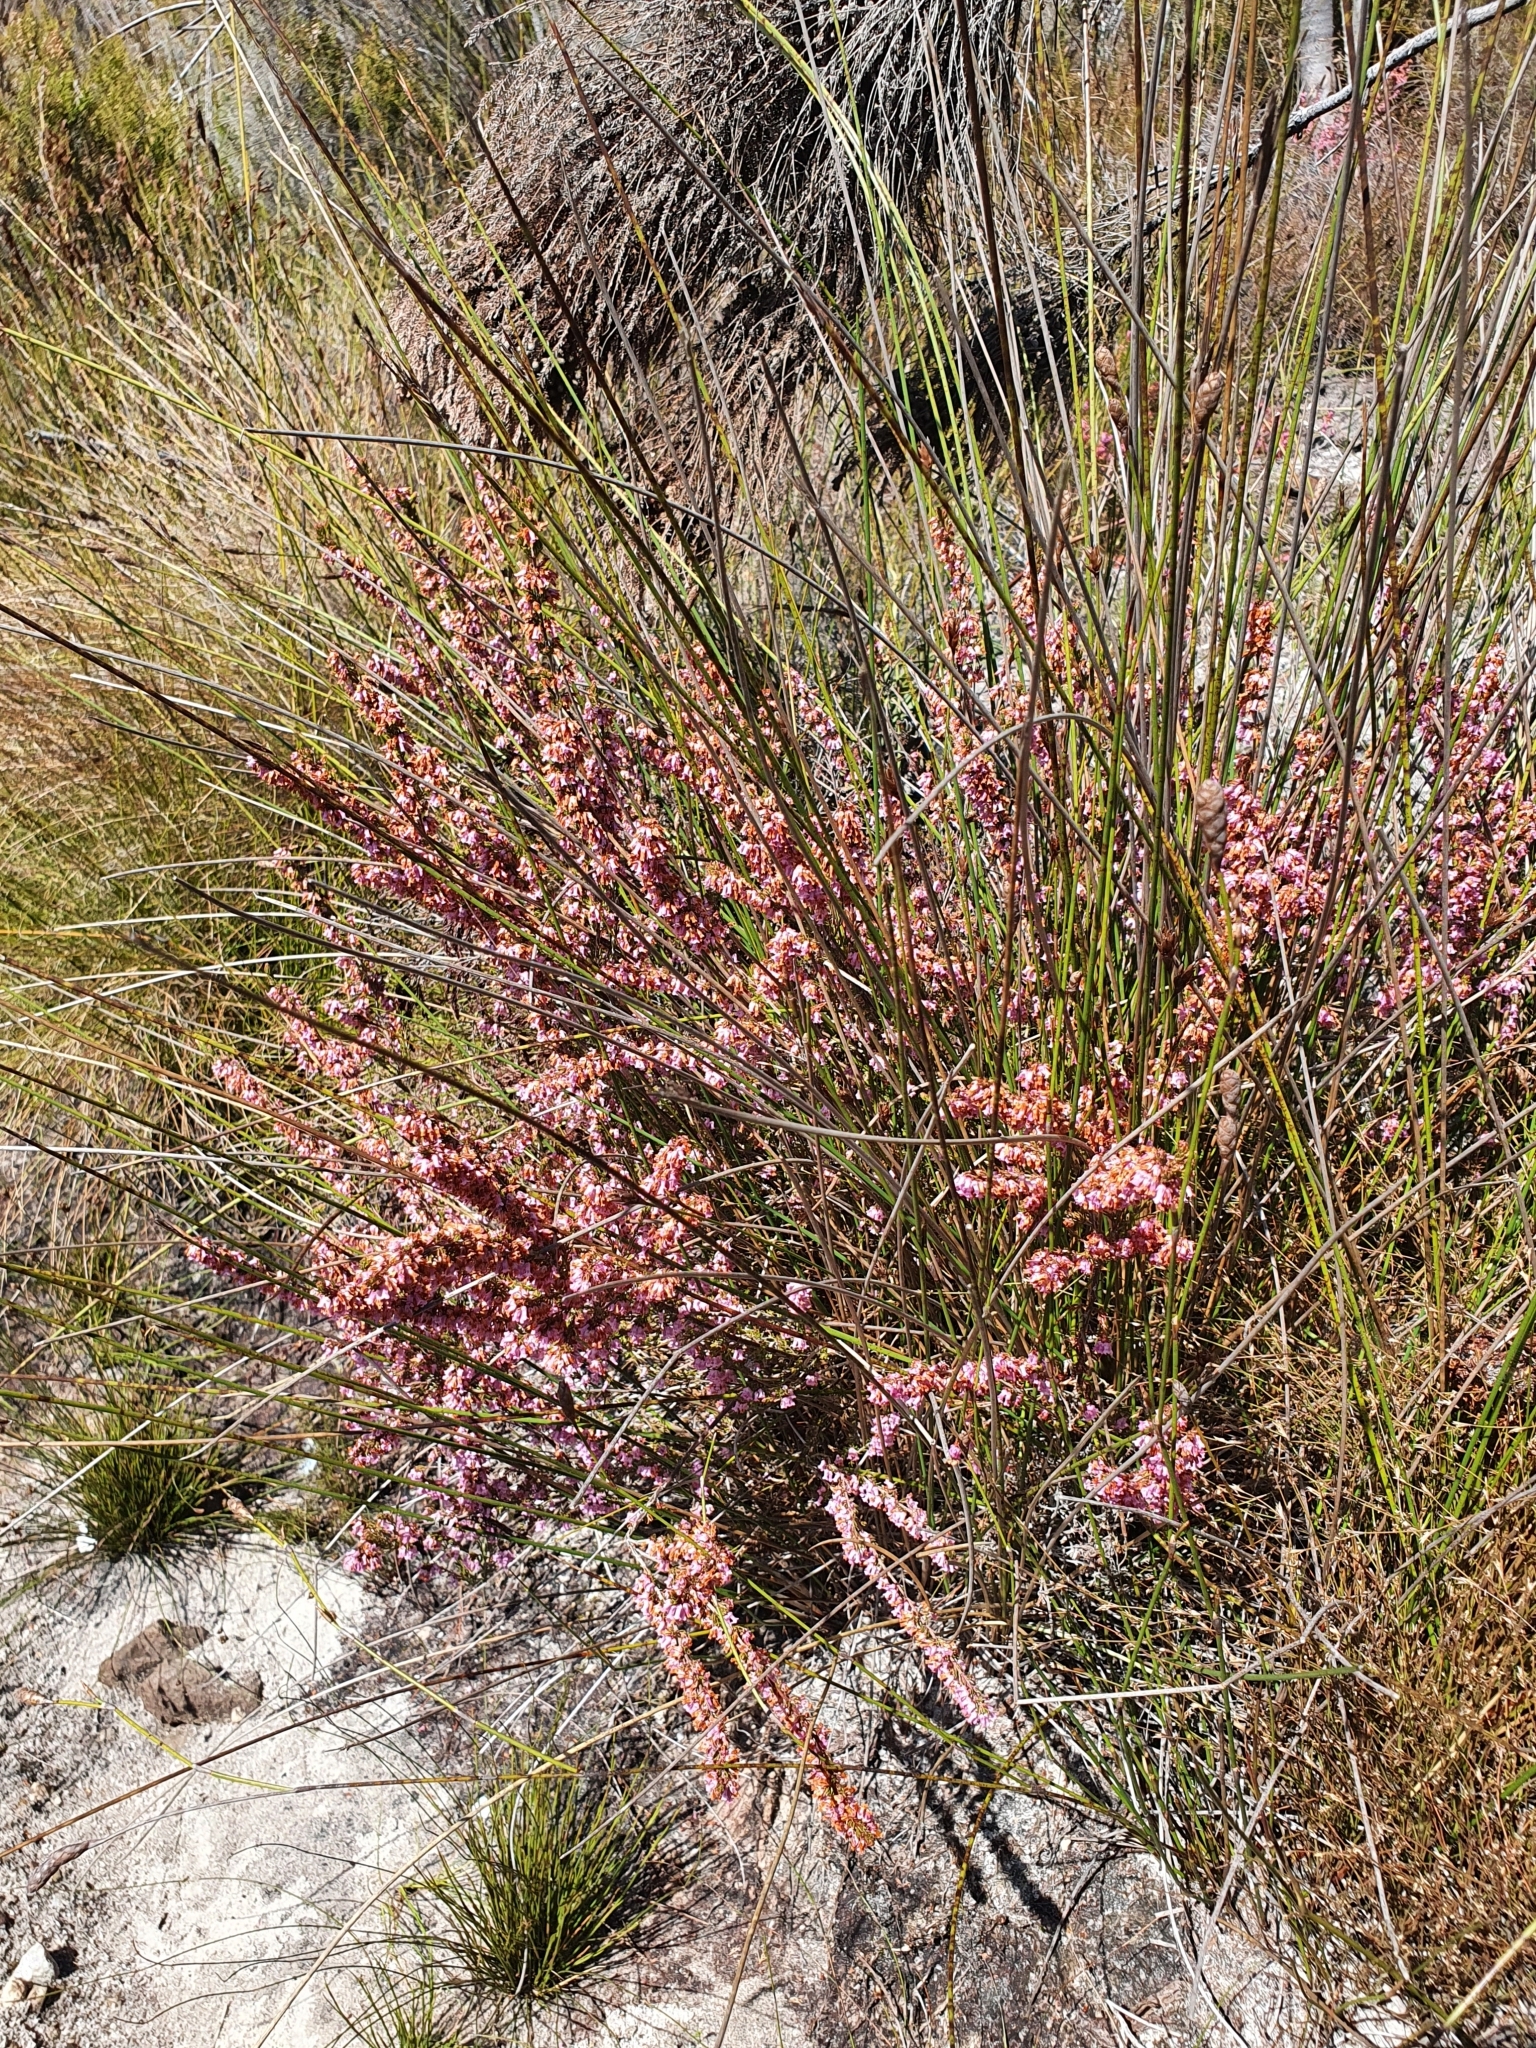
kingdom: Plantae
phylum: Tracheophyta
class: Magnoliopsida
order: Ericales
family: Ericaceae
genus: Erica
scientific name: Erica intervallaris
